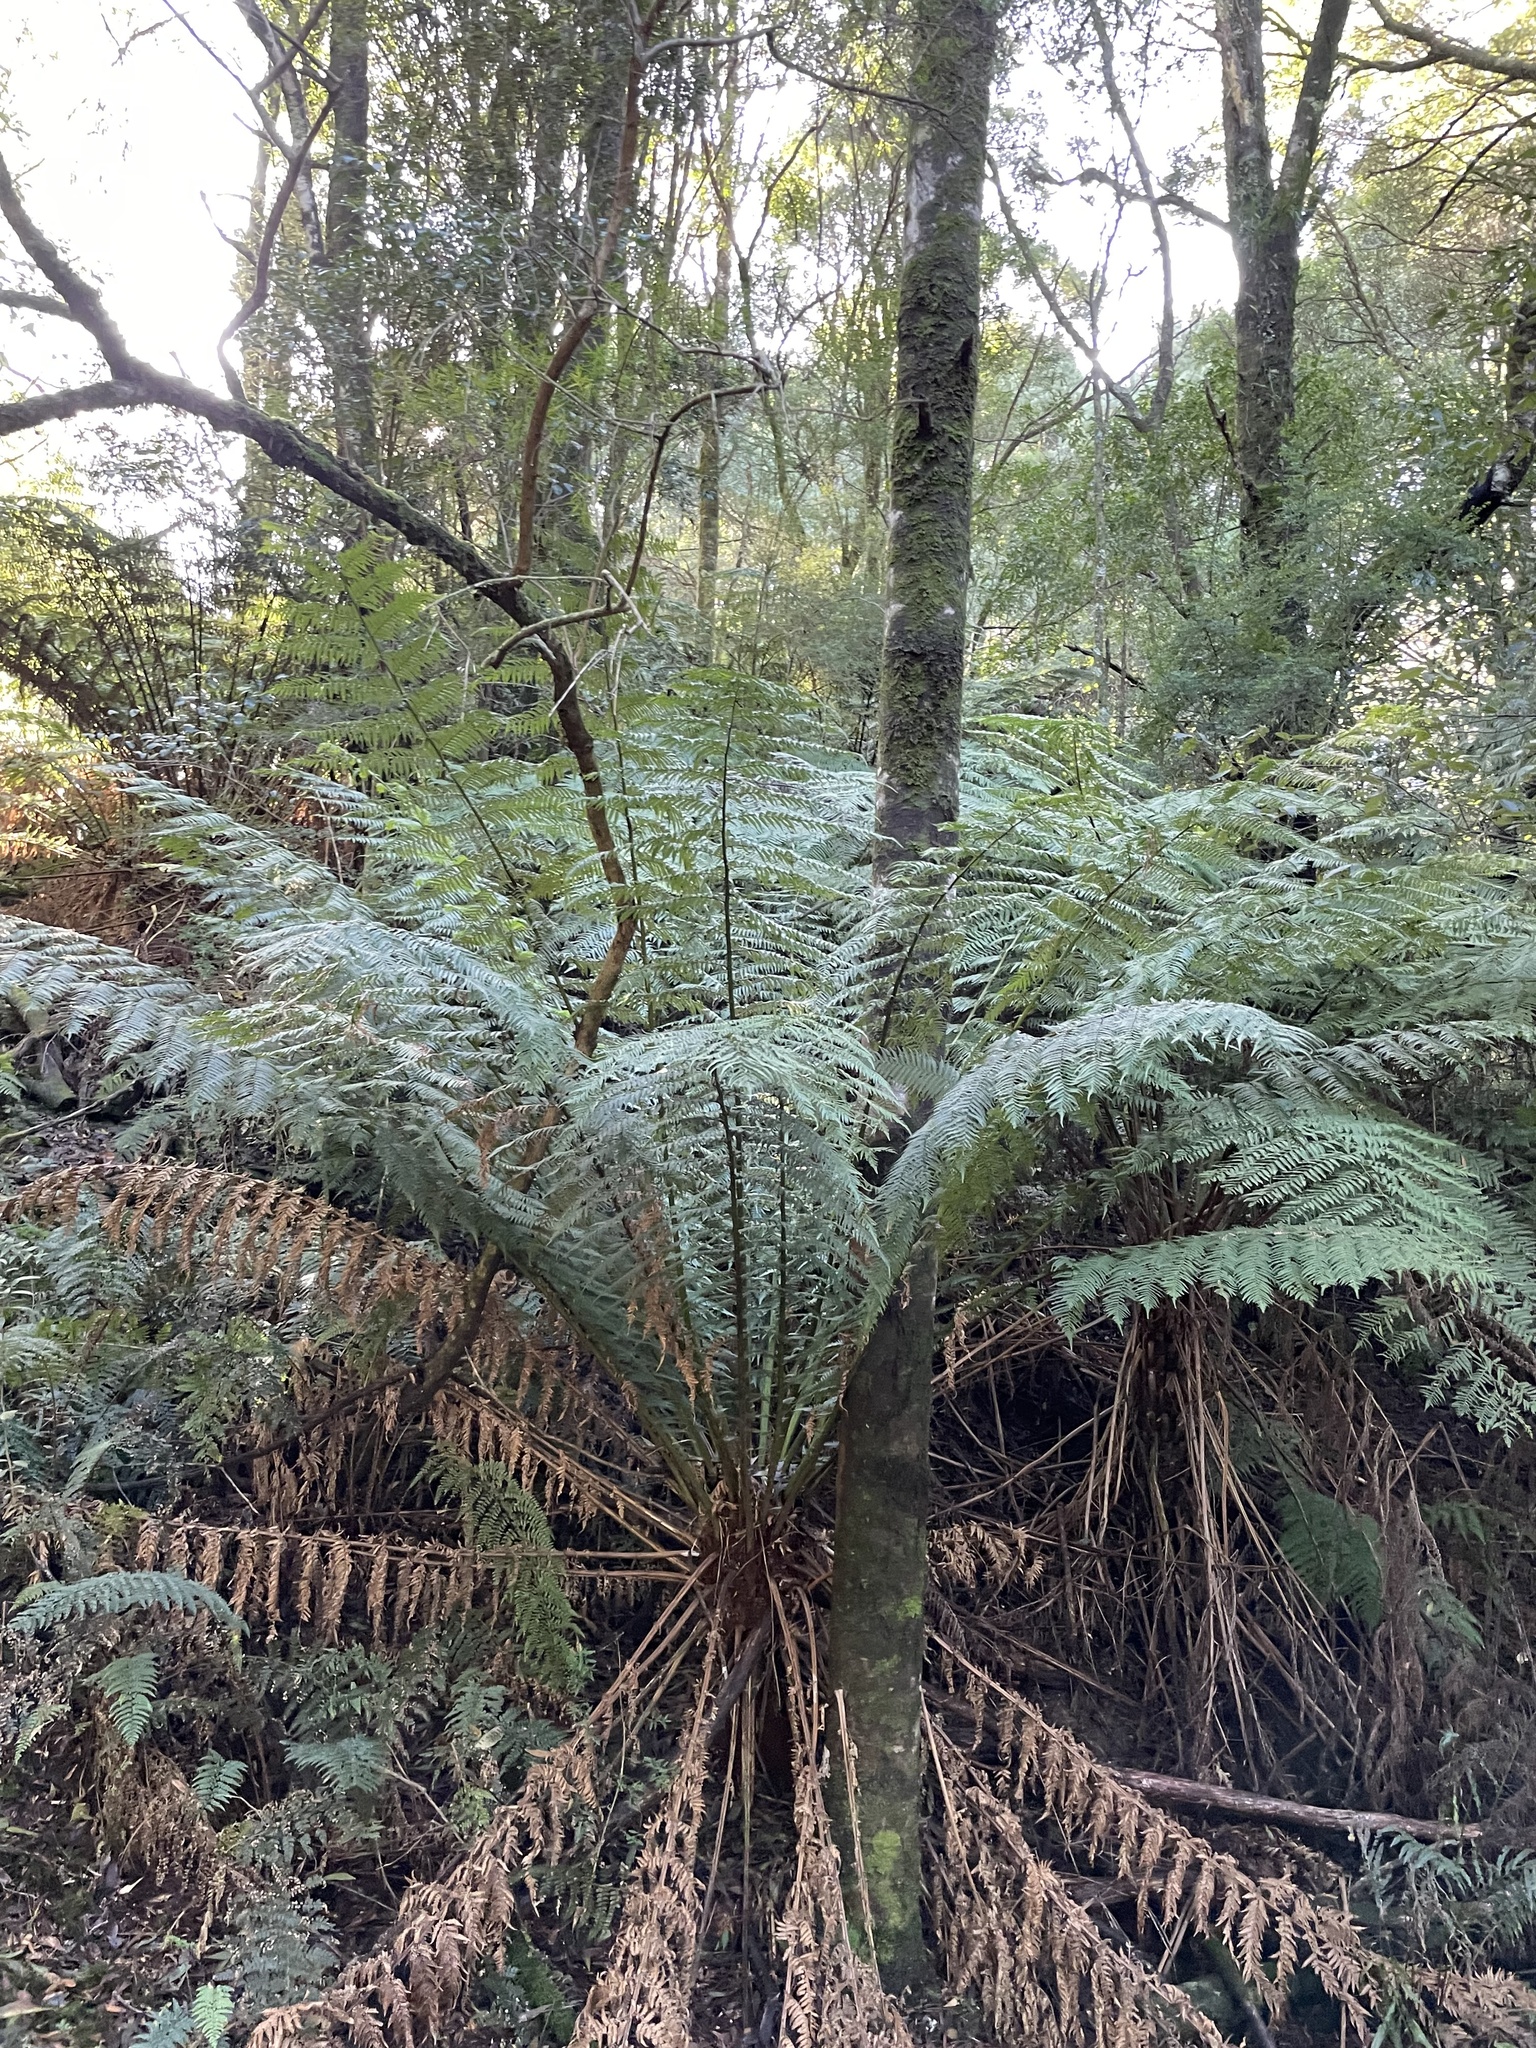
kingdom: Plantae
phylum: Tracheophyta
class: Polypodiopsida
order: Cyatheales
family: Dicksoniaceae
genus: Dicksonia
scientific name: Dicksonia antarctica
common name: Australian treefern
